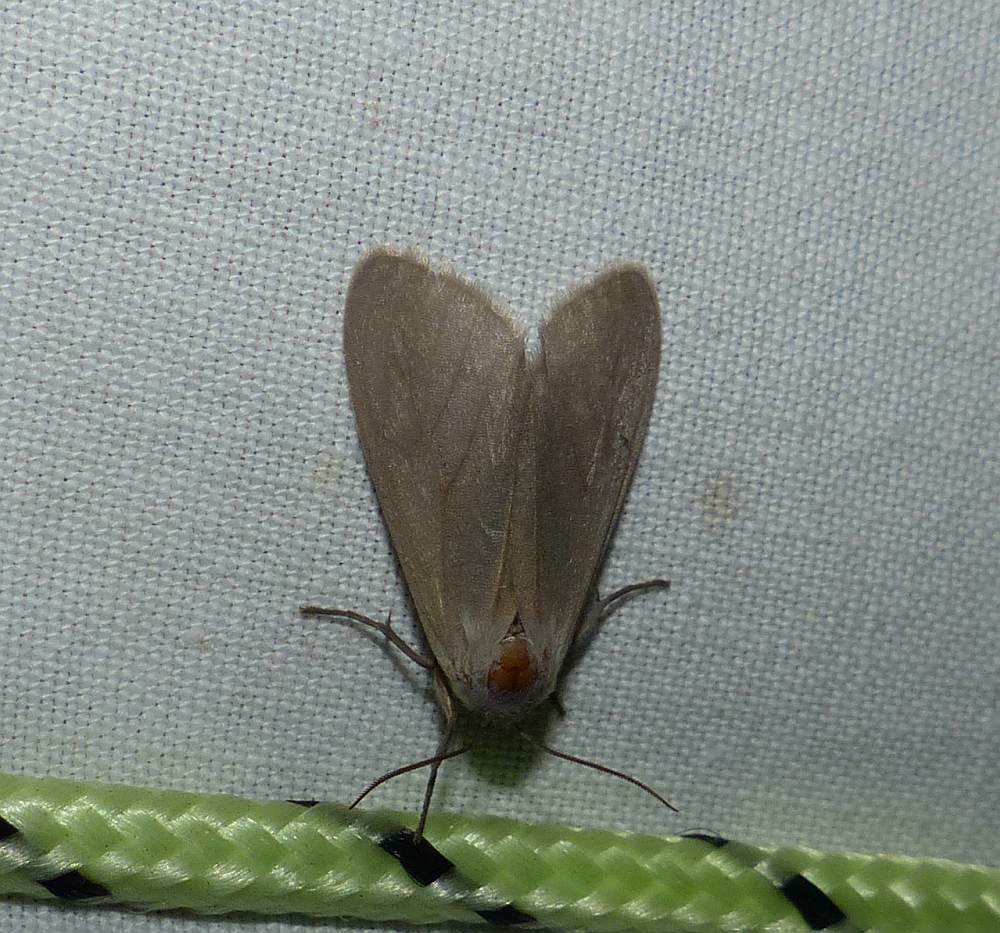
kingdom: Animalia
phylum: Arthropoda
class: Insecta
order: Lepidoptera
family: Erebidae
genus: Euchaetes
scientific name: Euchaetes egle
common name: Milkweed tussock moth
